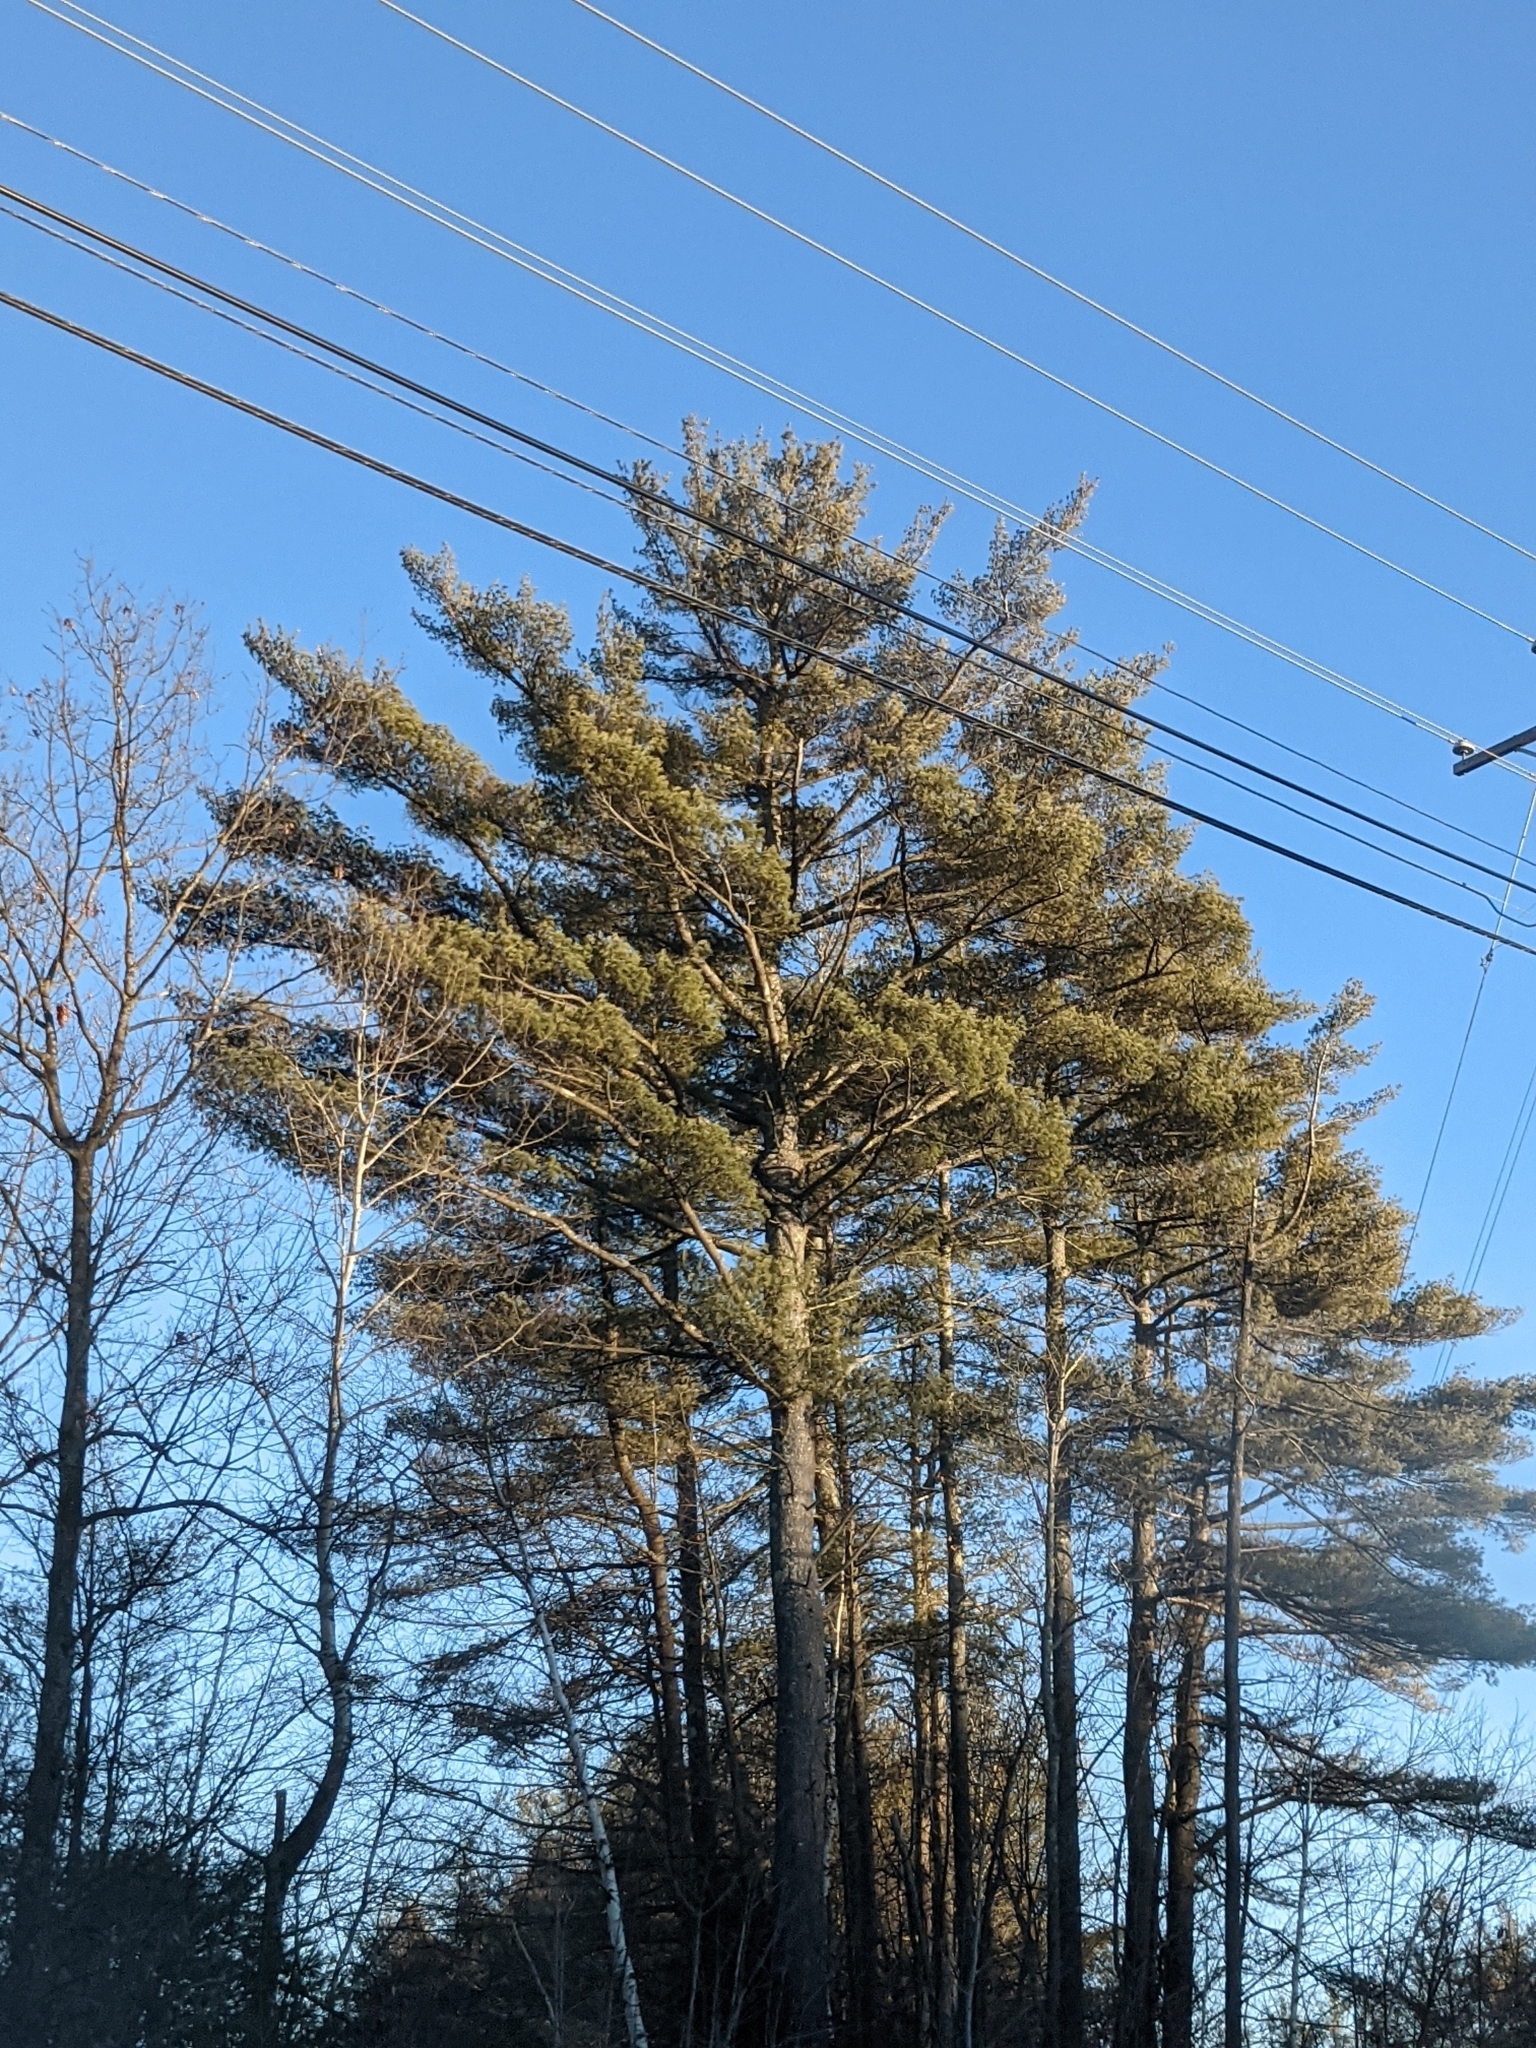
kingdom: Plantae
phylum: Tracheophyta
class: Pinopsida
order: Pinales
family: Pinaceae
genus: Pinus
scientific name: Pinus strobus
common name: Weymouth pine
